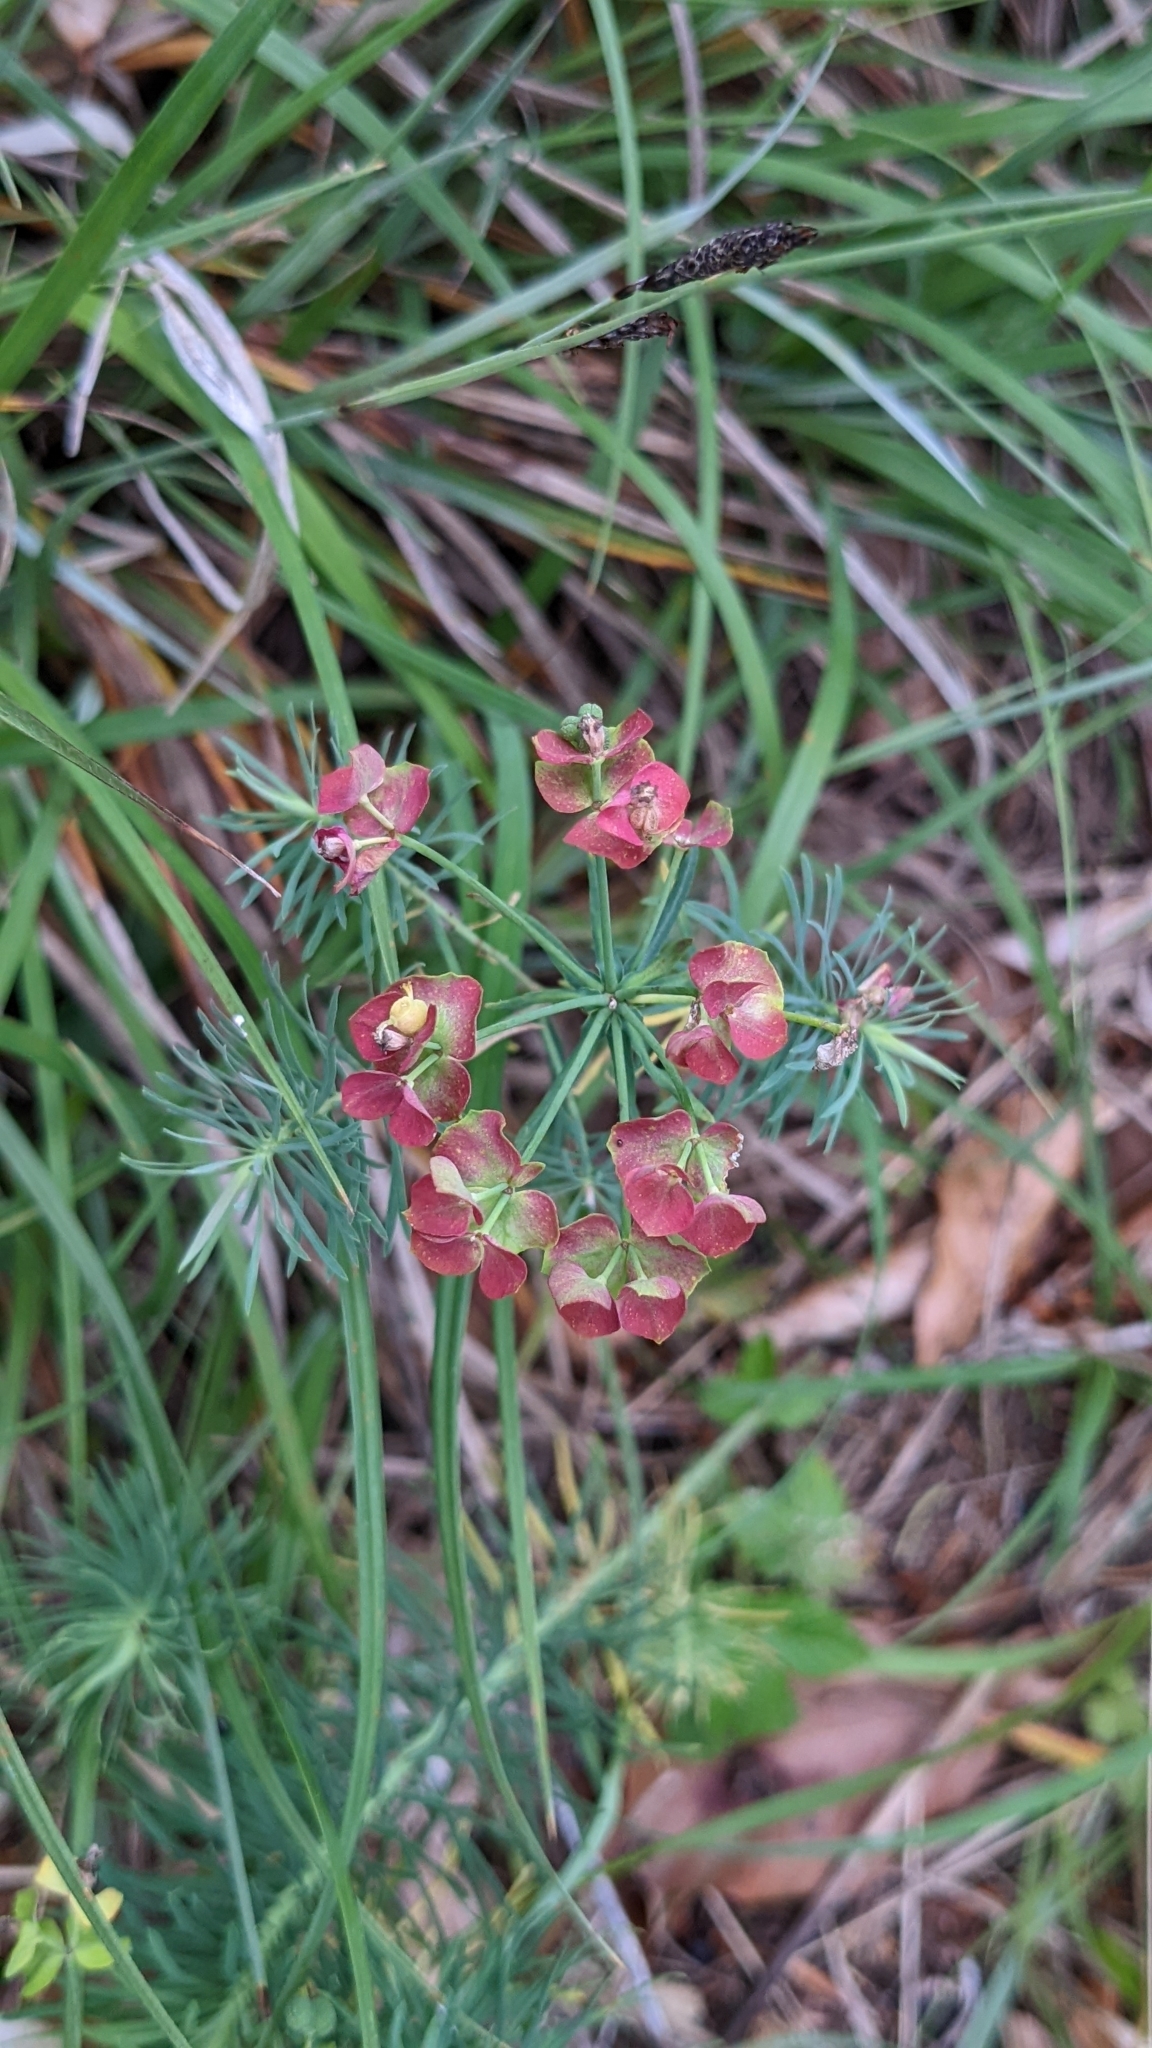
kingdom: Plantae
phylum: Tracheophyta
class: Magnoliopsida
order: Malpighiales
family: Euphorbiaceae
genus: Euphorbia
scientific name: Euphorbia cyparissias
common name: Cypress spurge
